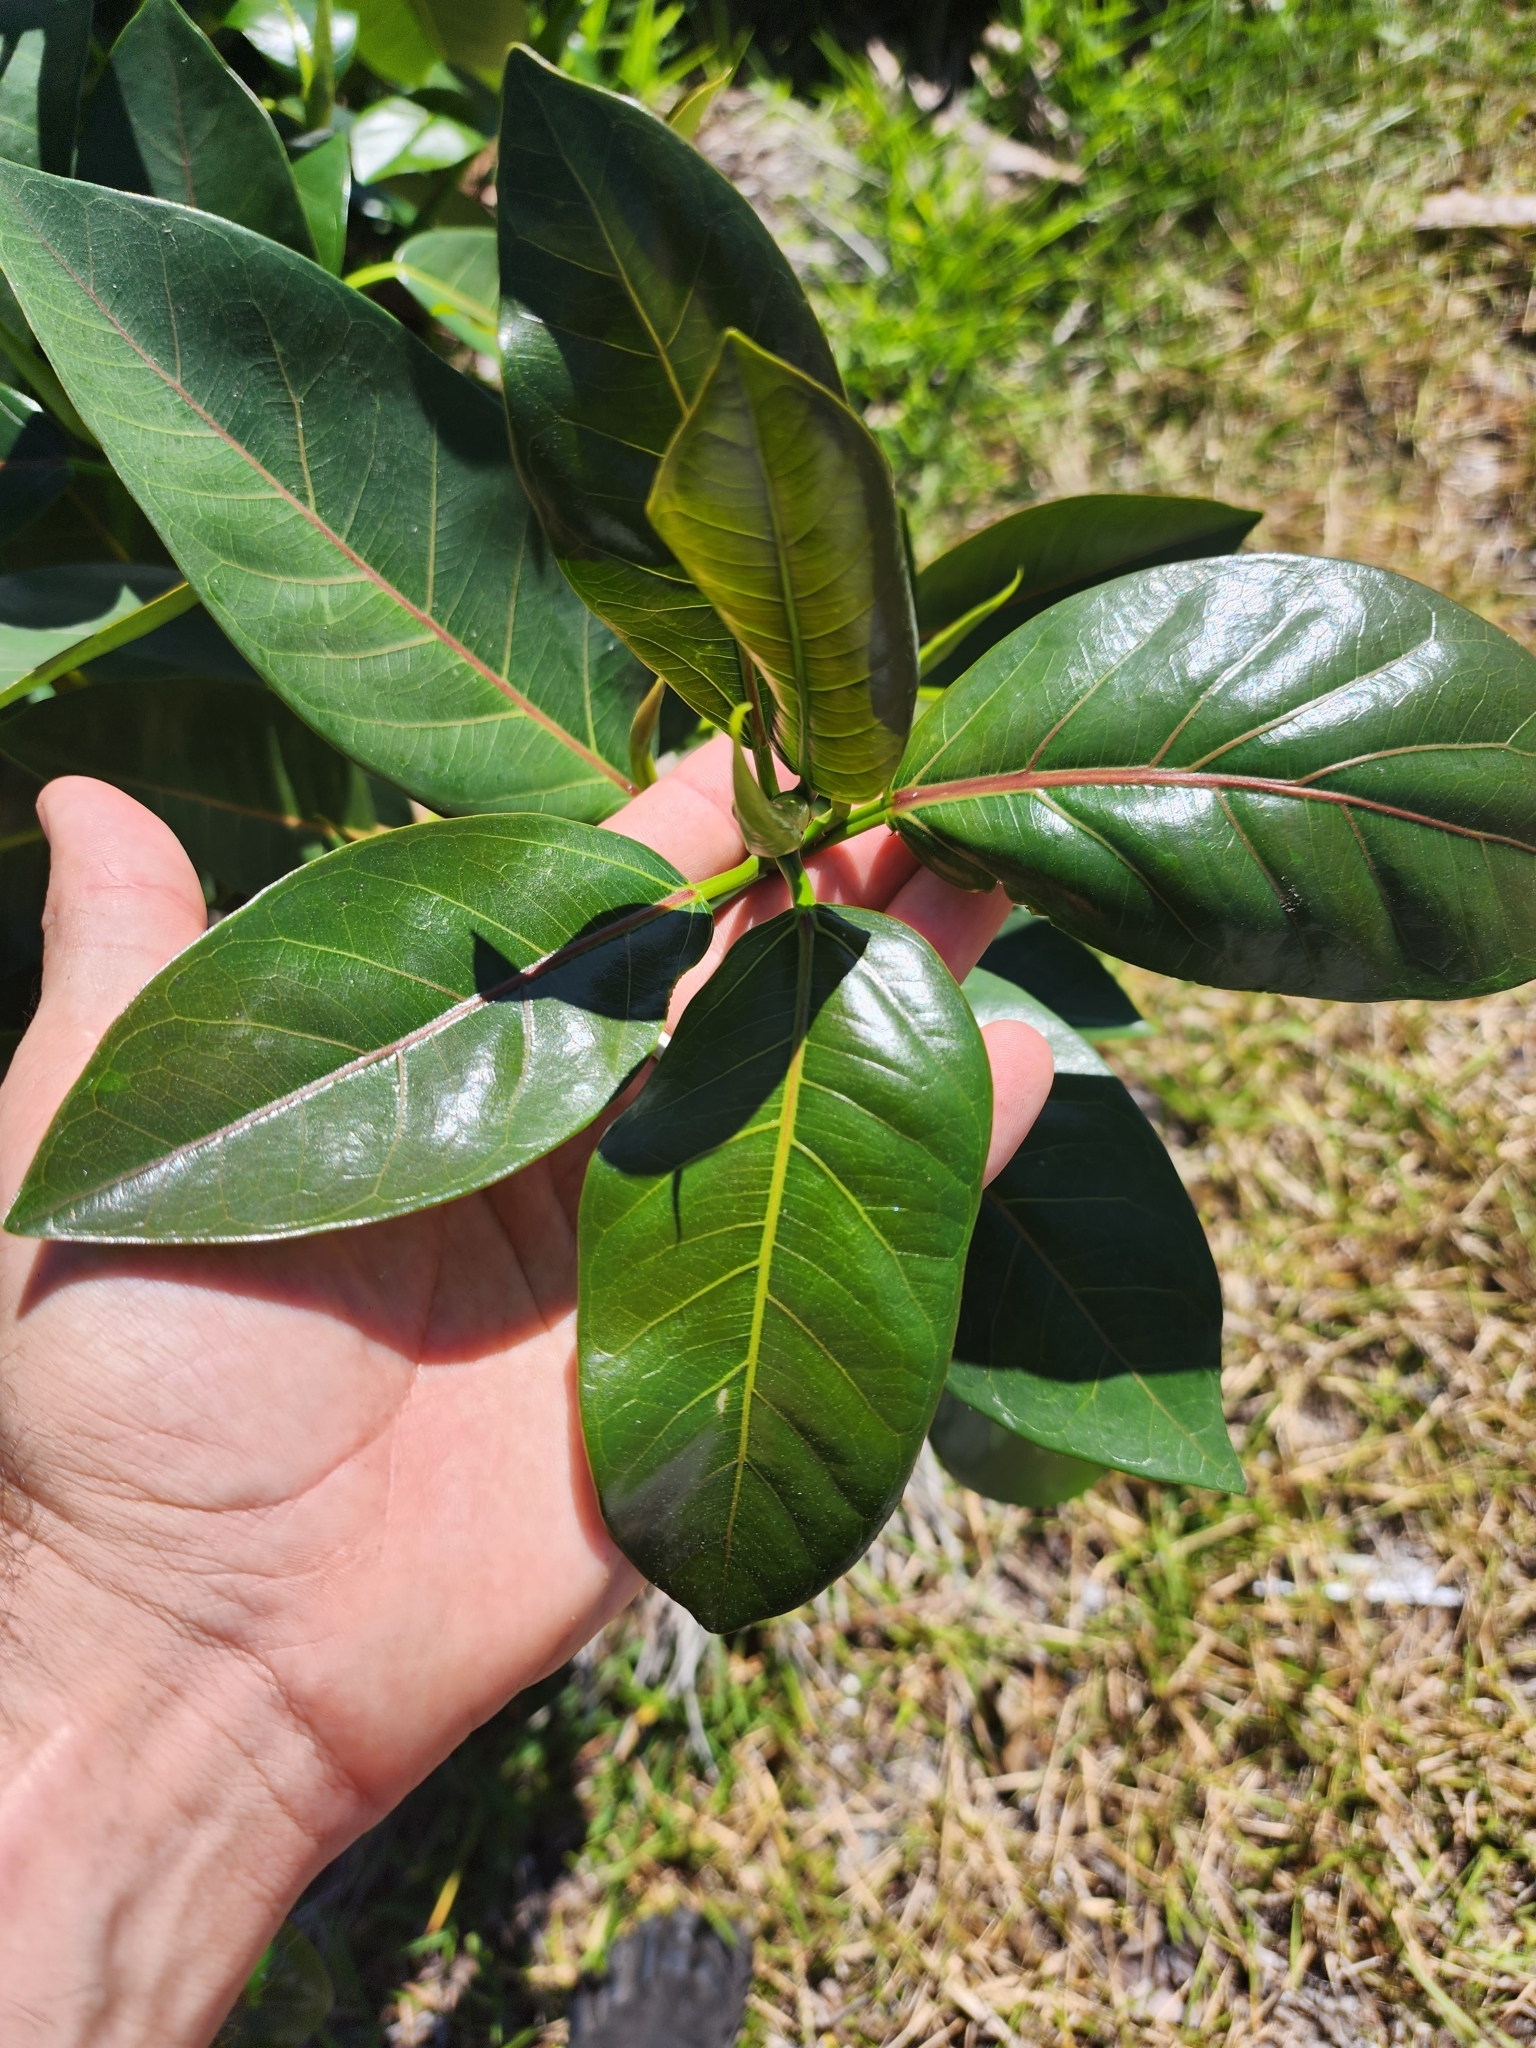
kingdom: Plantae
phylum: Tracheophyta
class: Magnoliopsida
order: Rosales
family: Moraceae
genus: Ficus
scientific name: Ficus aurea
